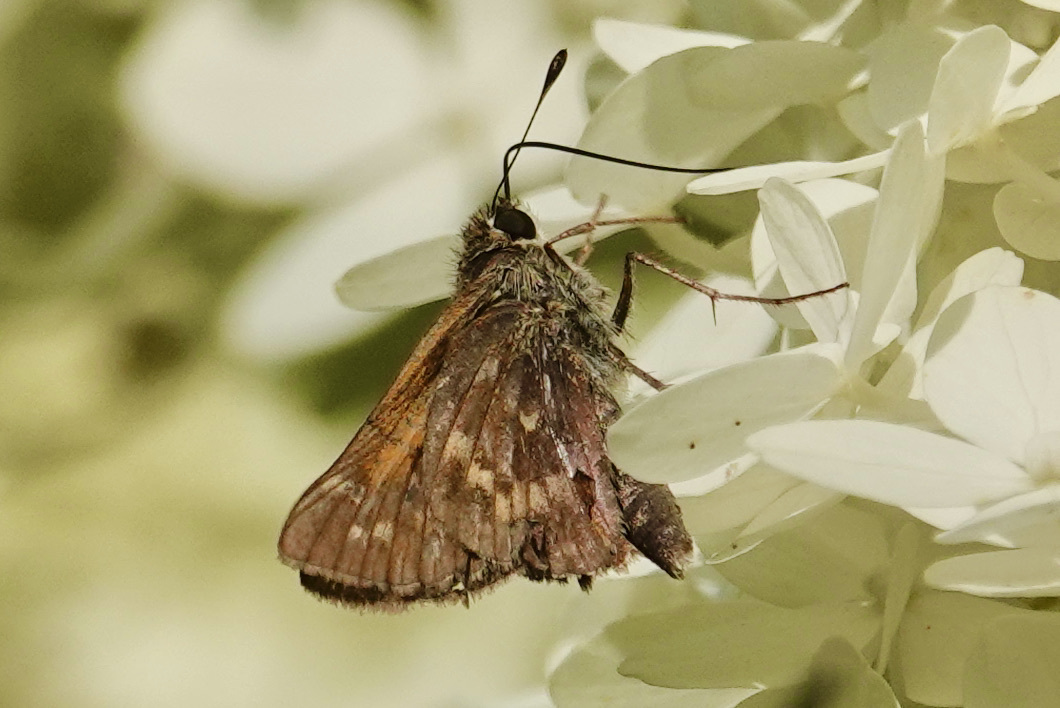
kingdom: Animalia
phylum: Arthropoda
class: Insecta
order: Lepidoptera
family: Hesperiidae
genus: Atalopedes
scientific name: Atalopedes
